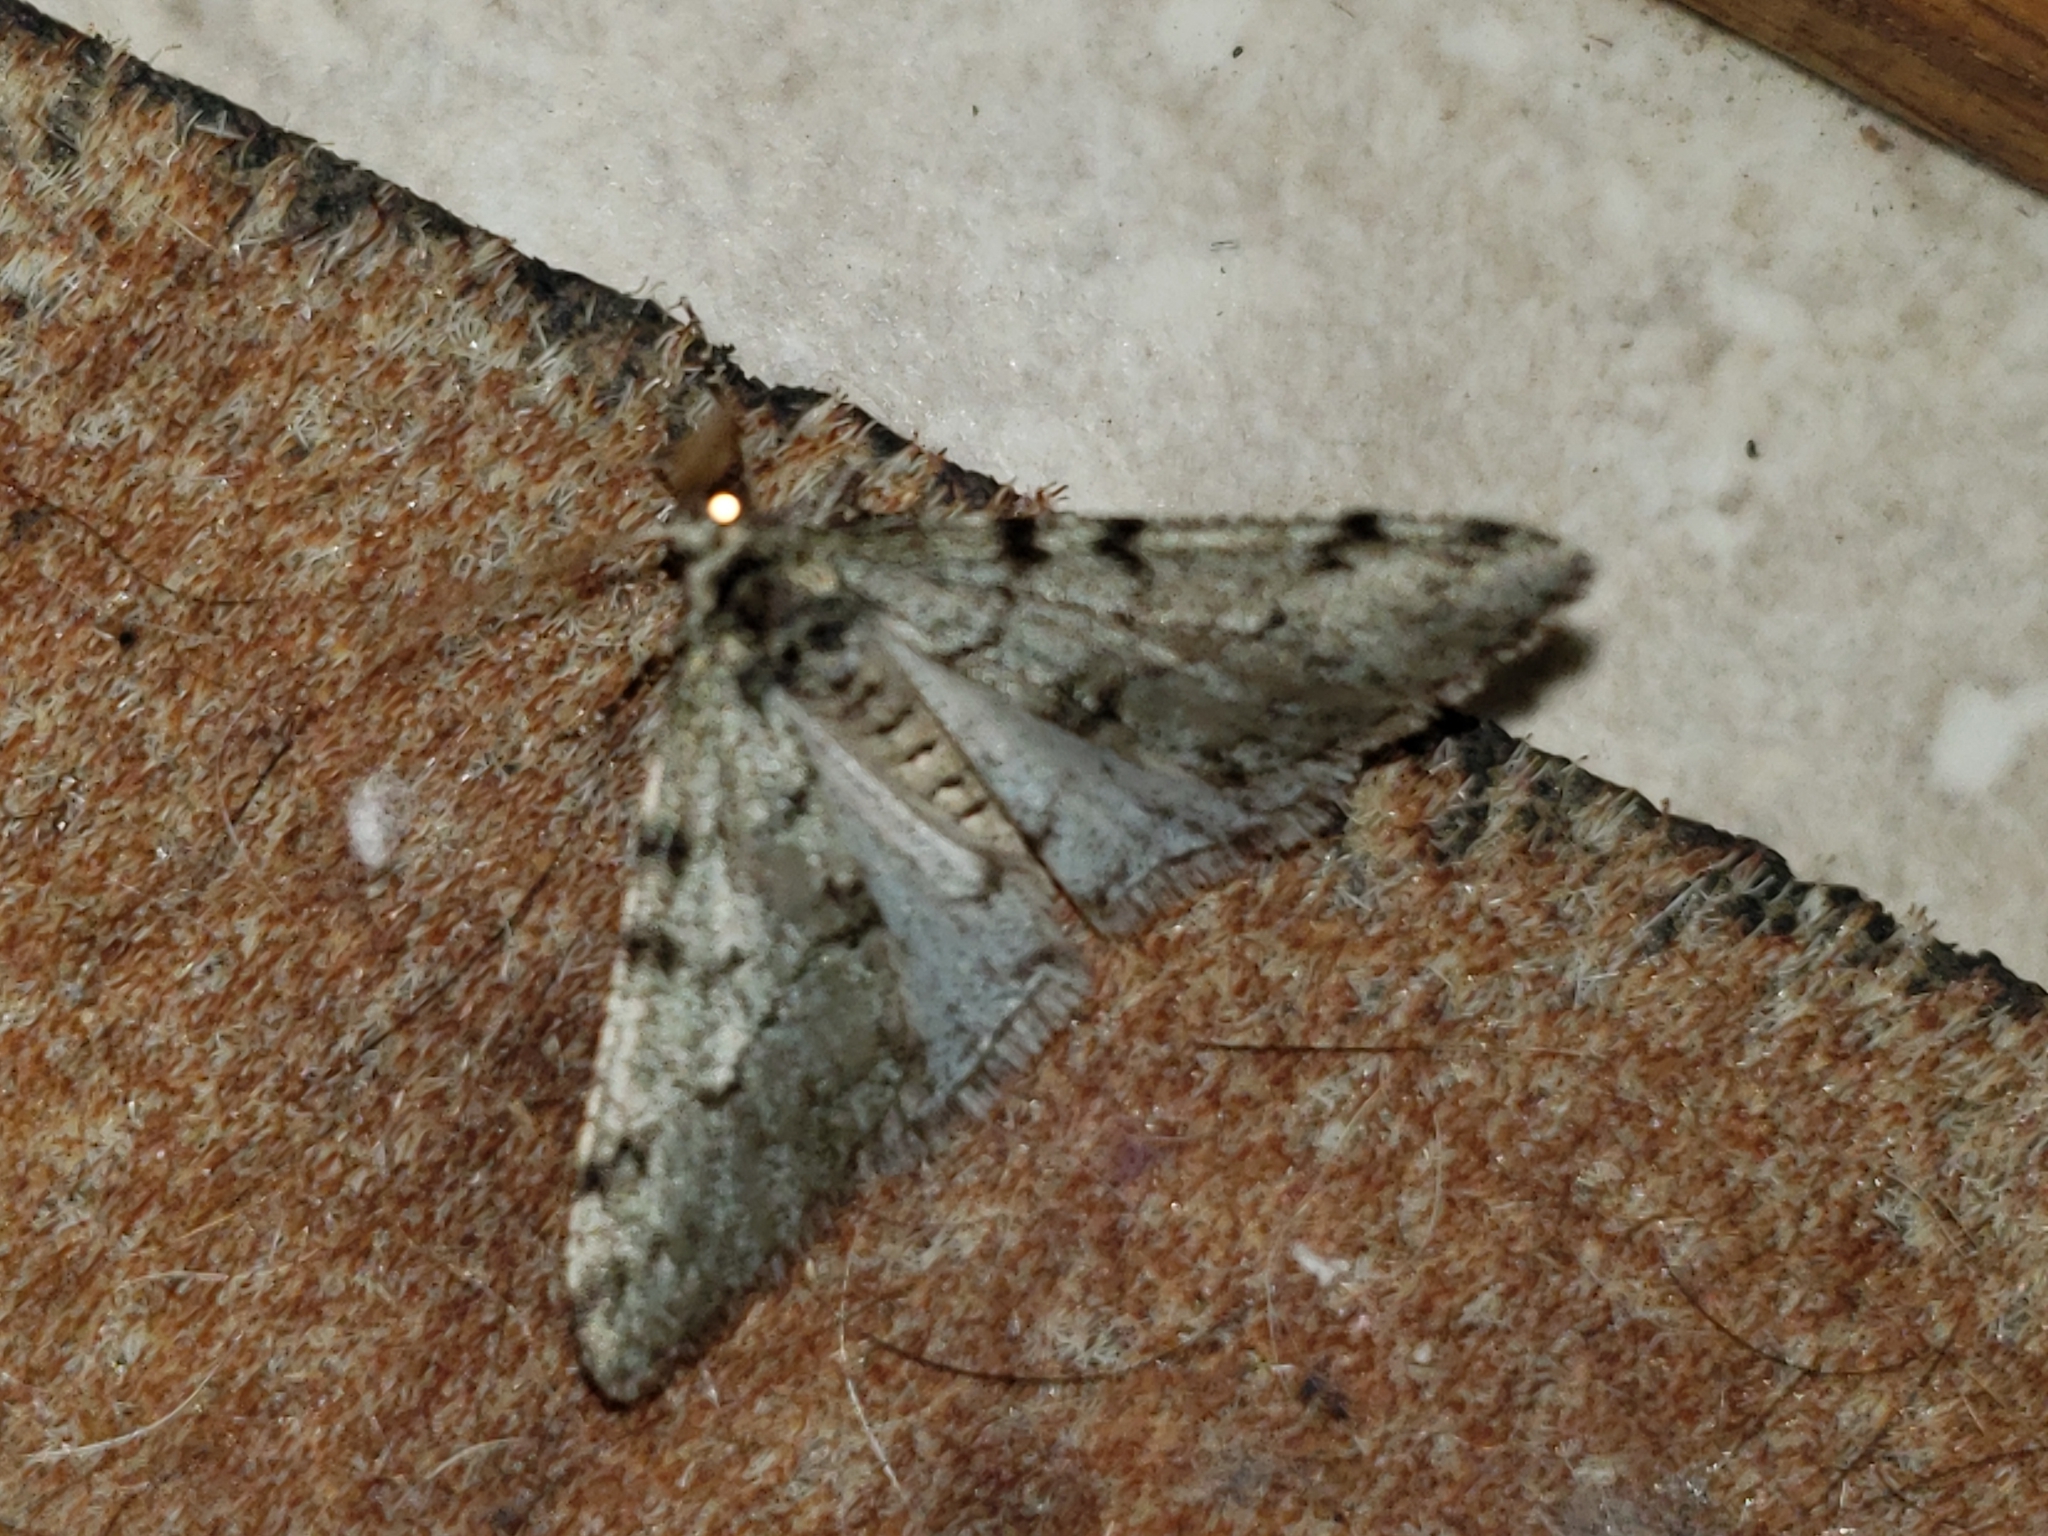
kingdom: Animalia
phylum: Arthropoda
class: Insecta
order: Lepidoptera
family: Geometridae
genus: Phigalia
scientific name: Phigalia strigataria
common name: Small phigalia
